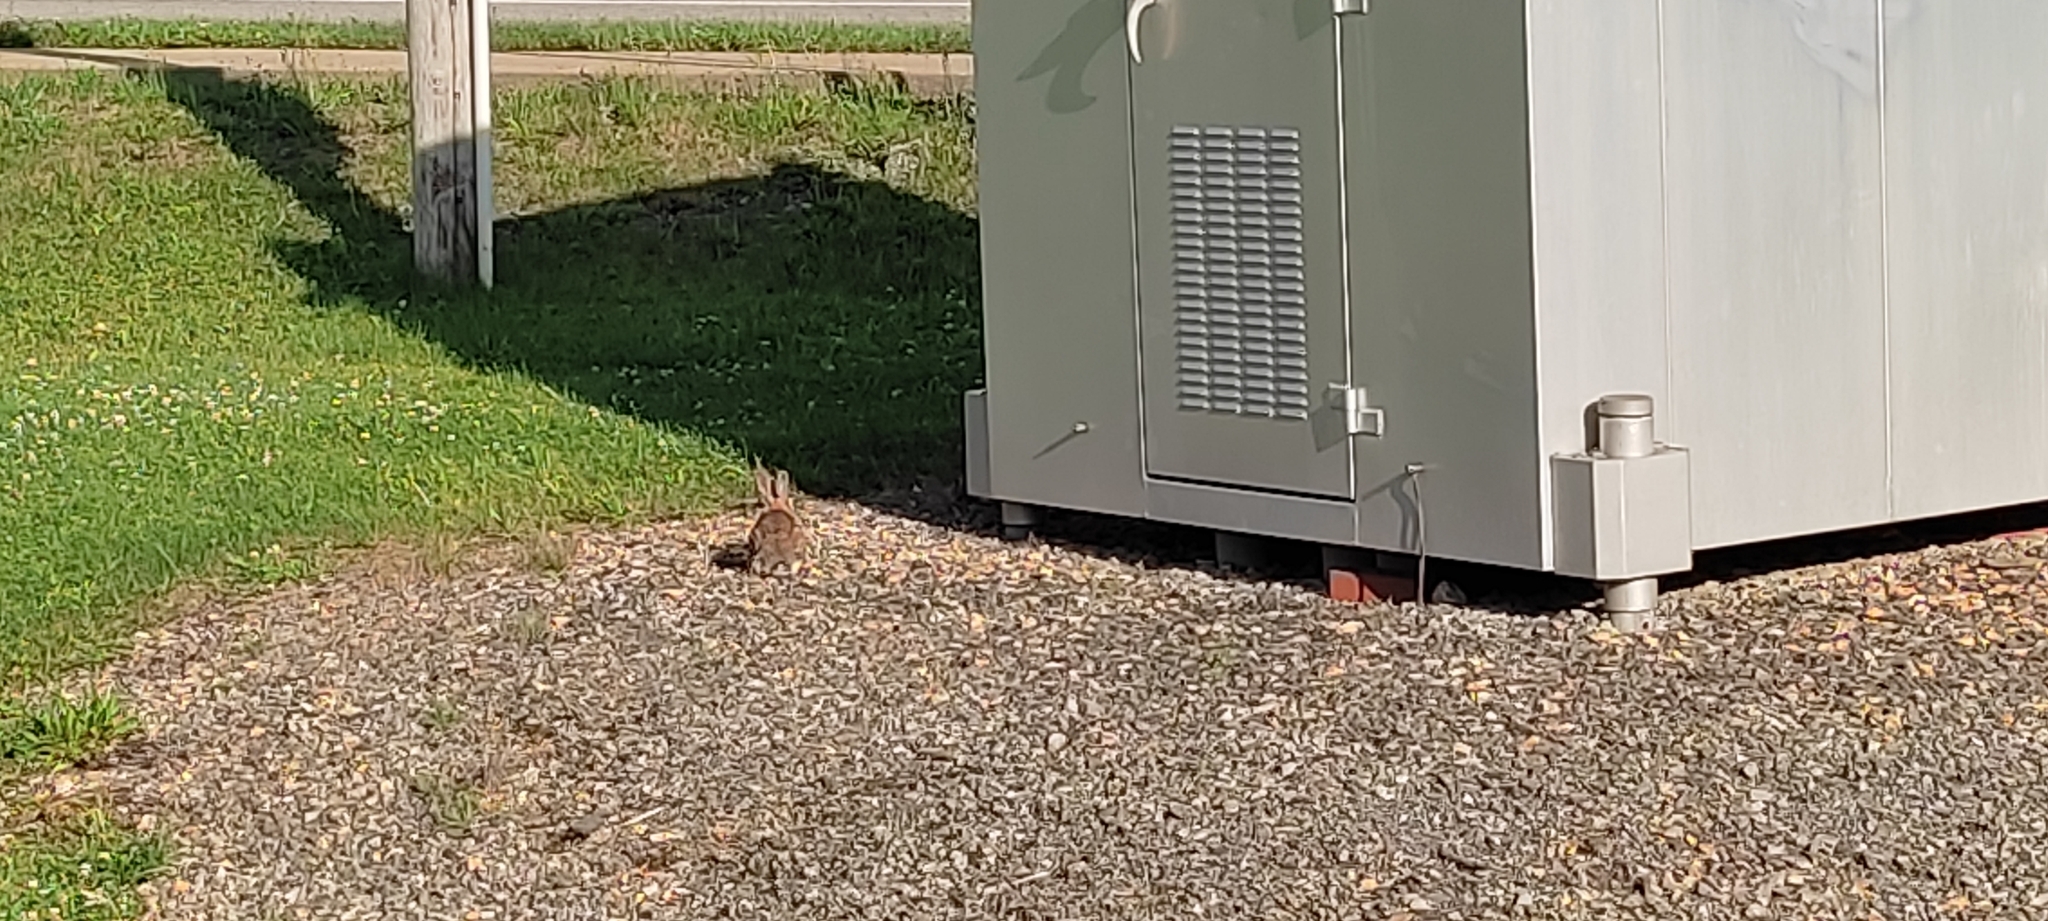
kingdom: Animalia
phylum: Chordata
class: Mammalia
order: Lagomorpha
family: Leporidae
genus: Sylvilagus
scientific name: Sylvilagus floridanus
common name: Eastern cottontail
